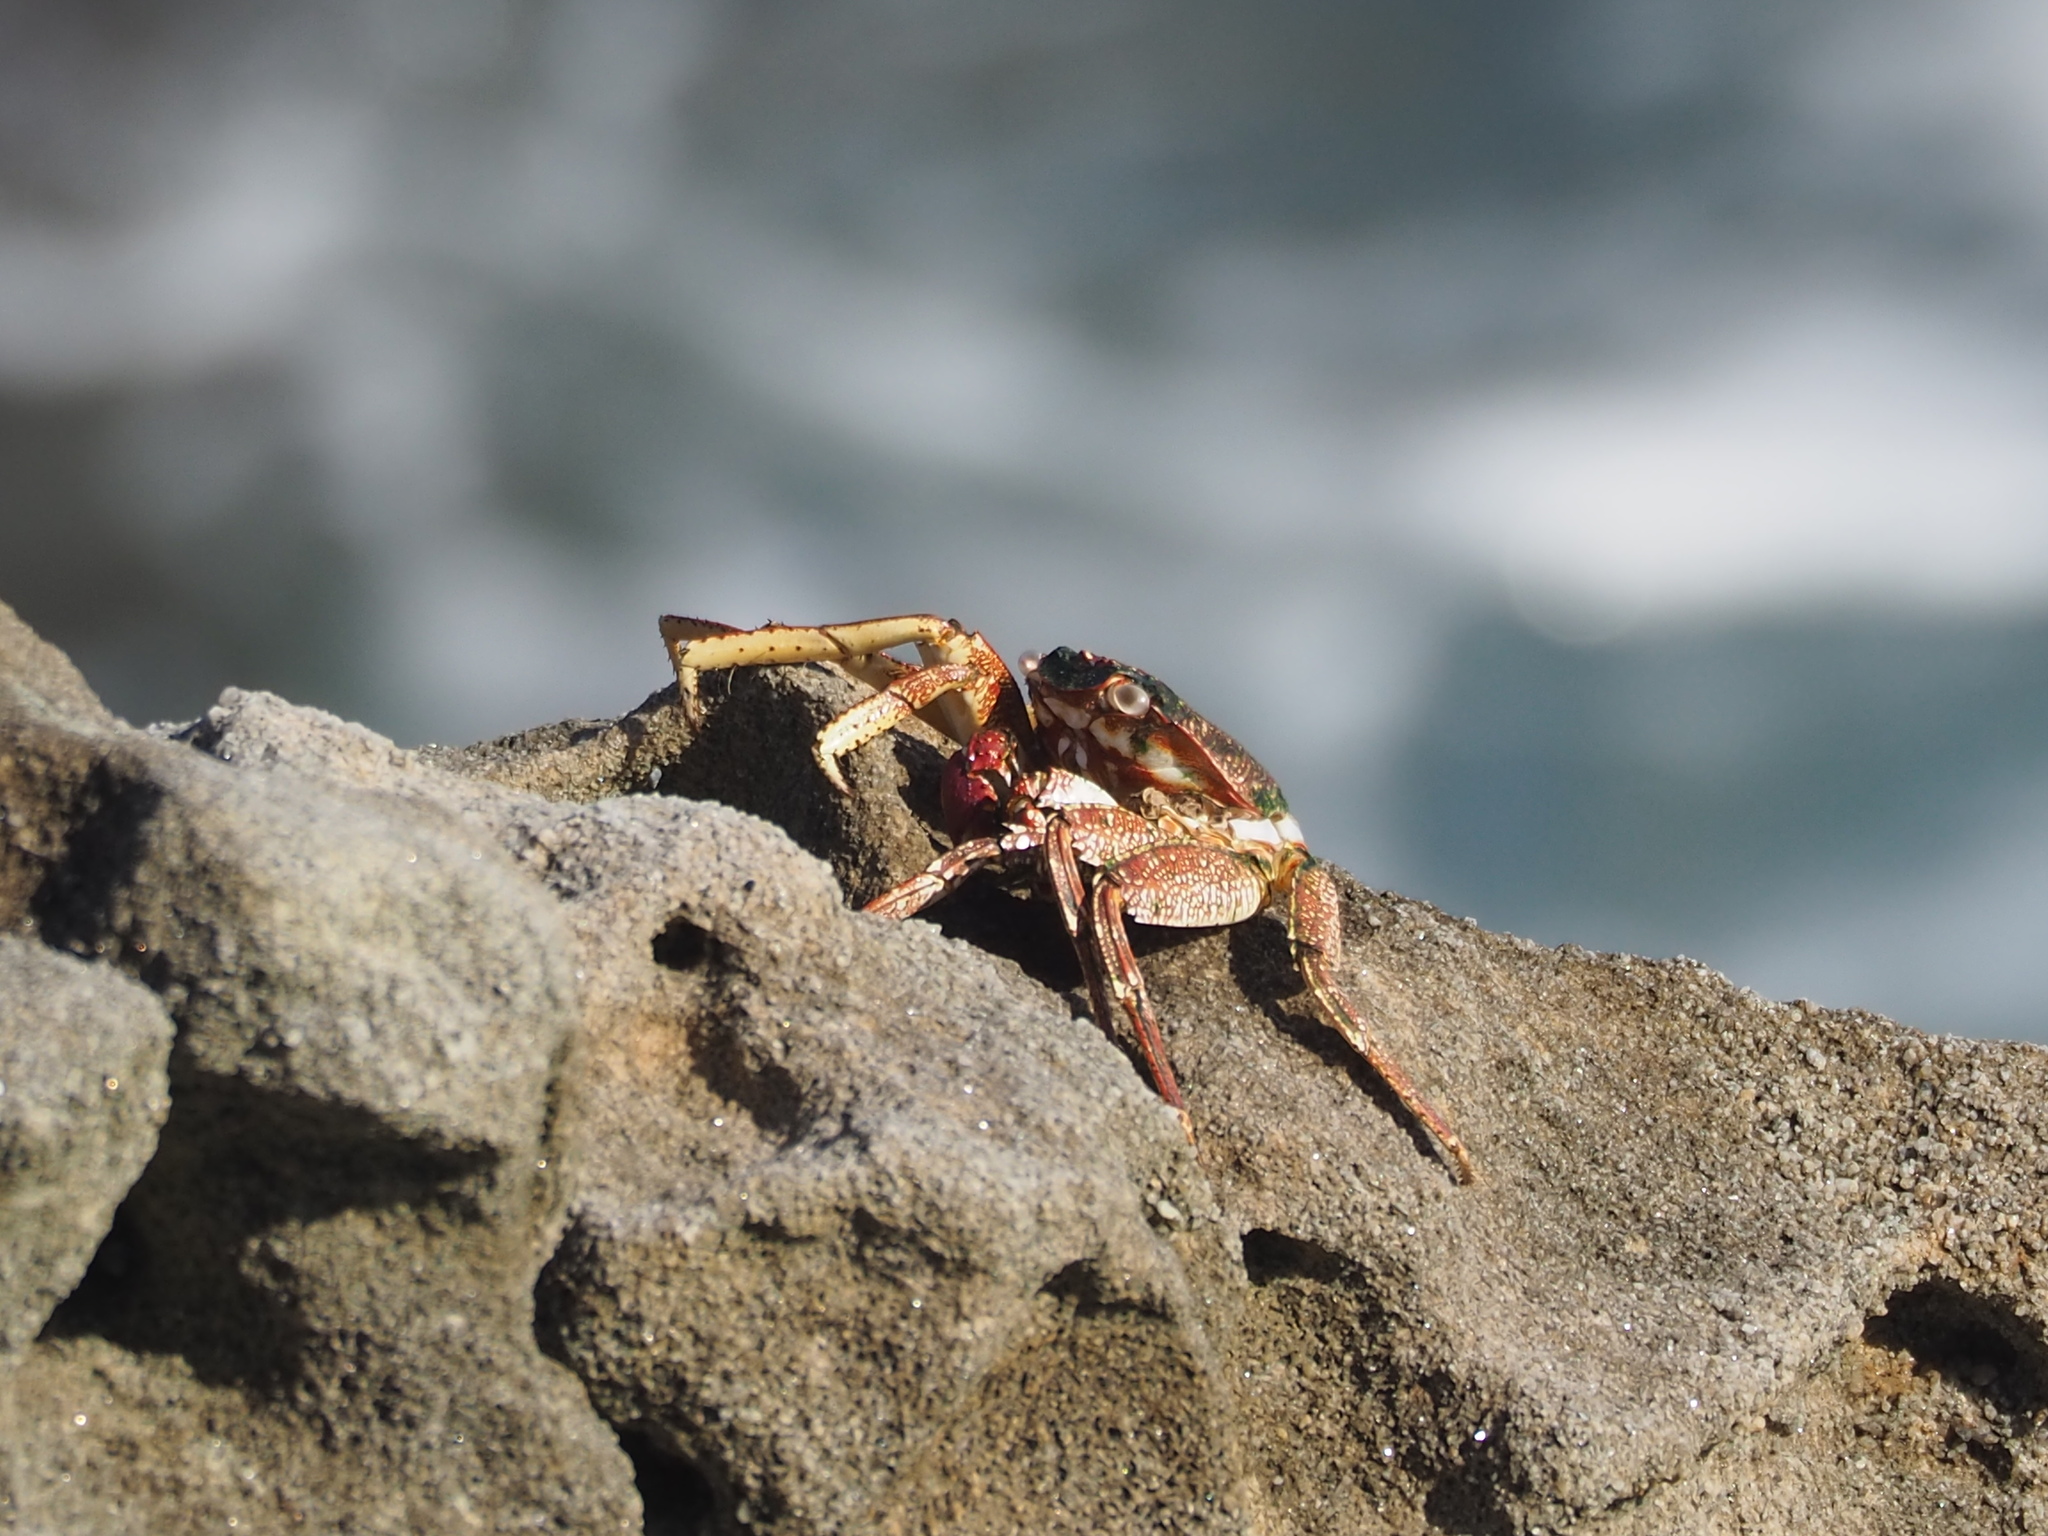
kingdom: Animalia
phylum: Arthropoda
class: Malacostraca
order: Decapoda
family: Grapsidae
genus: Grapsus
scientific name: Grapsus tenuicrustatus
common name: Natal lightfoot crab
